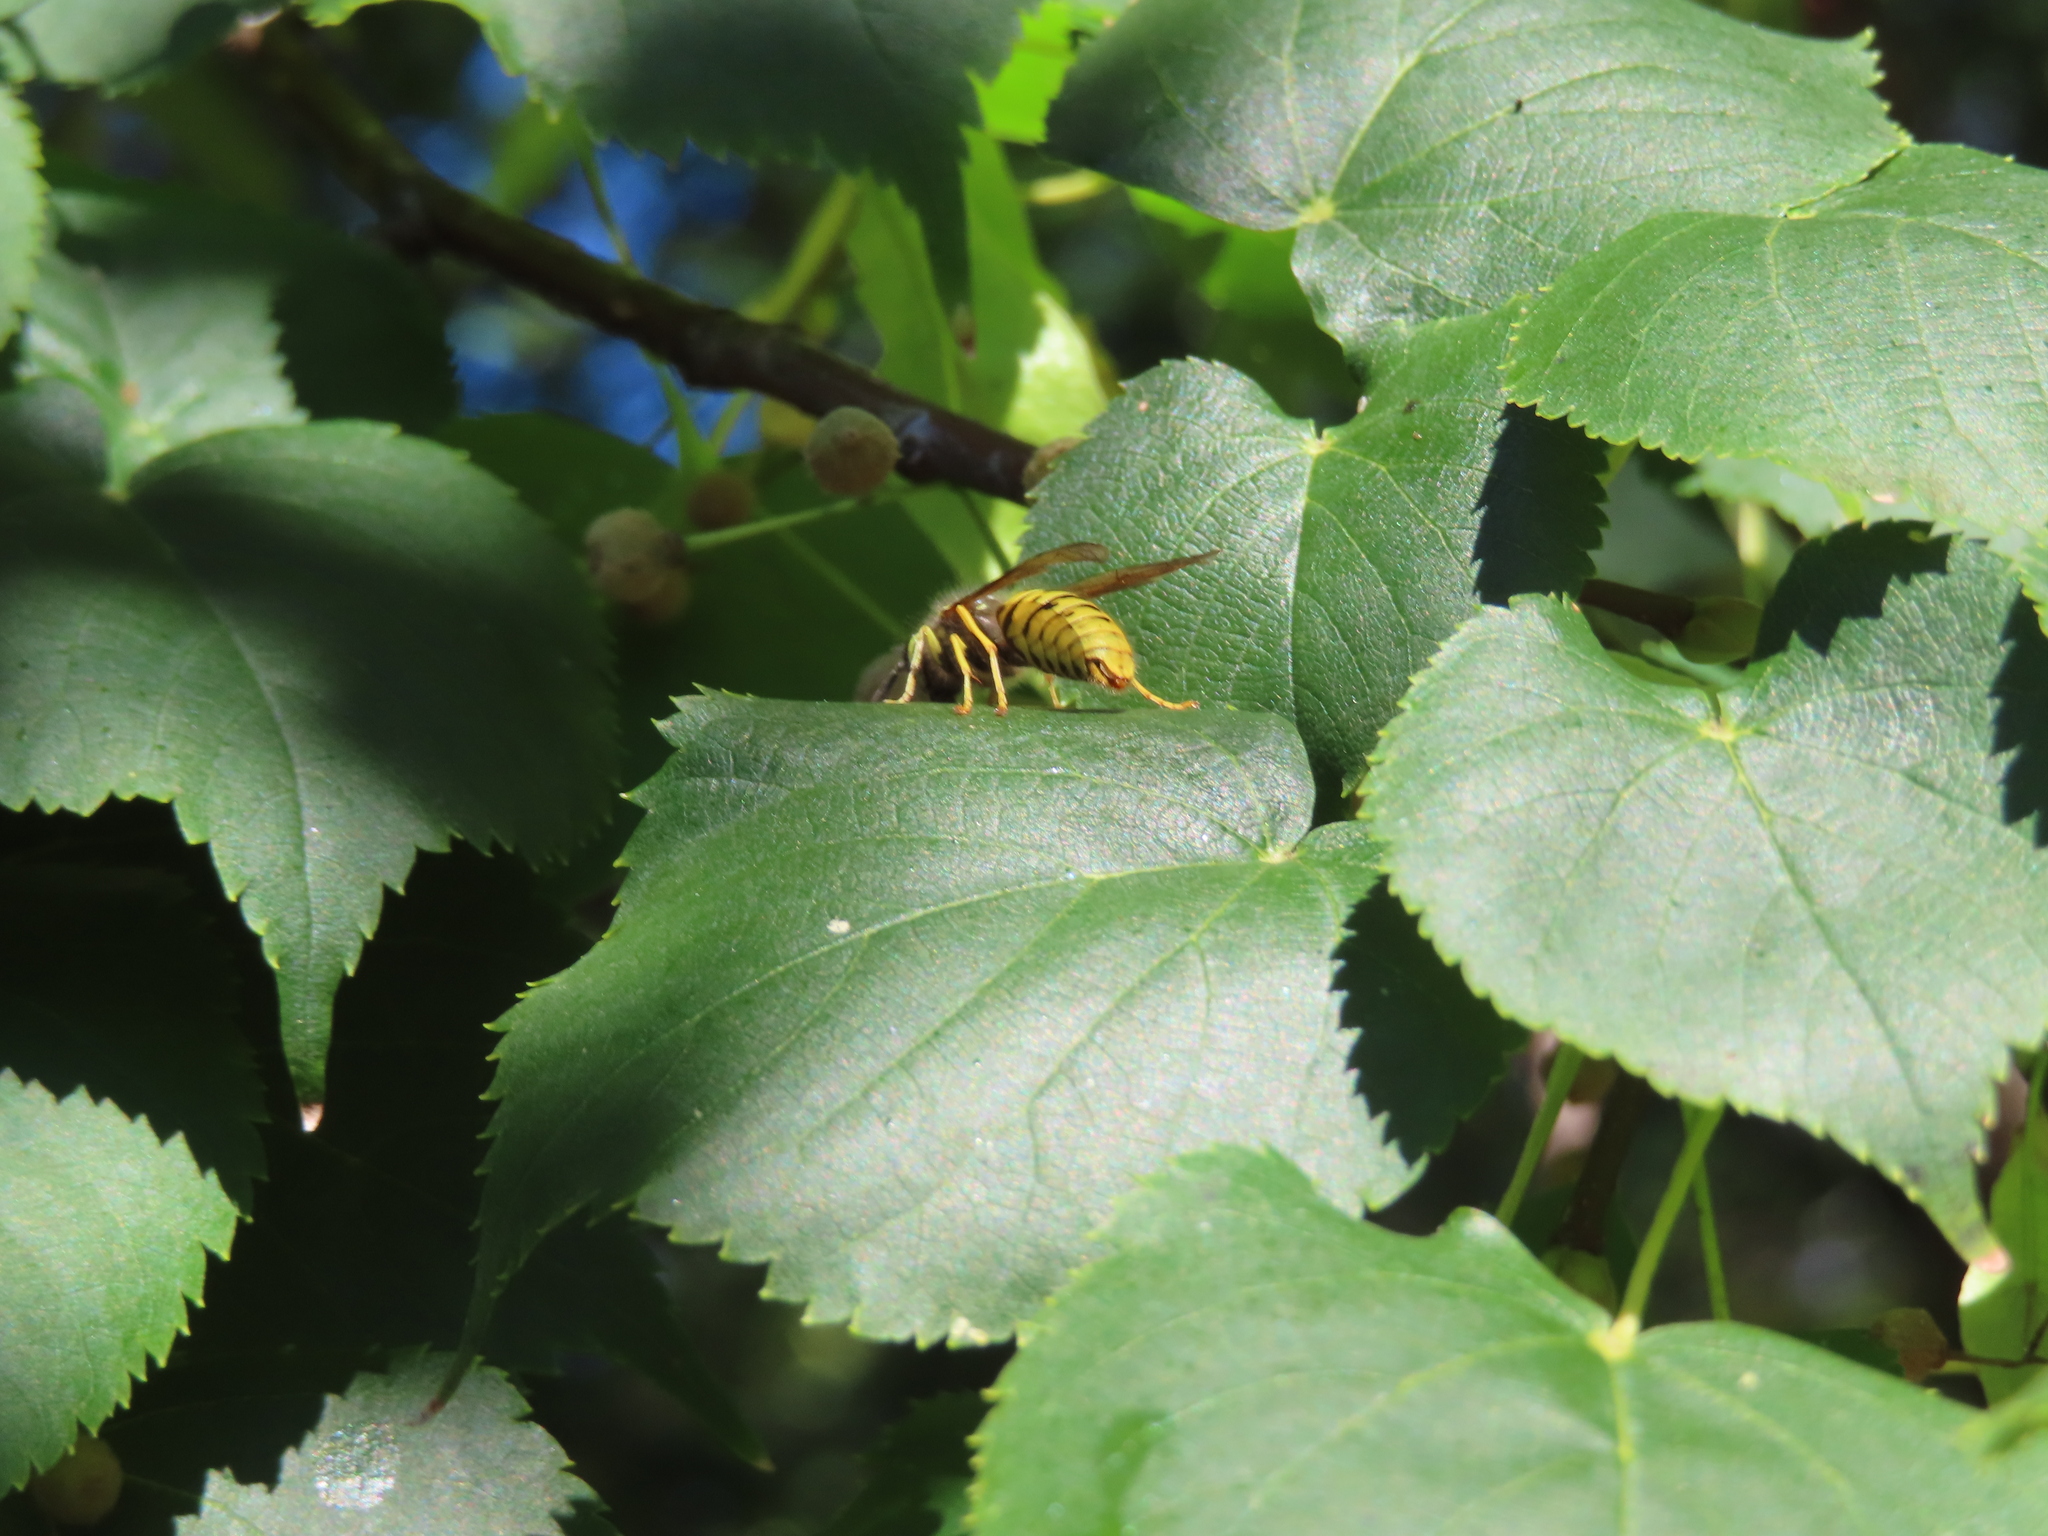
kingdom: Animalia
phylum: Arthropoda
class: Insecta
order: Hymenoptera
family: Vespidae
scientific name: Vespidae
